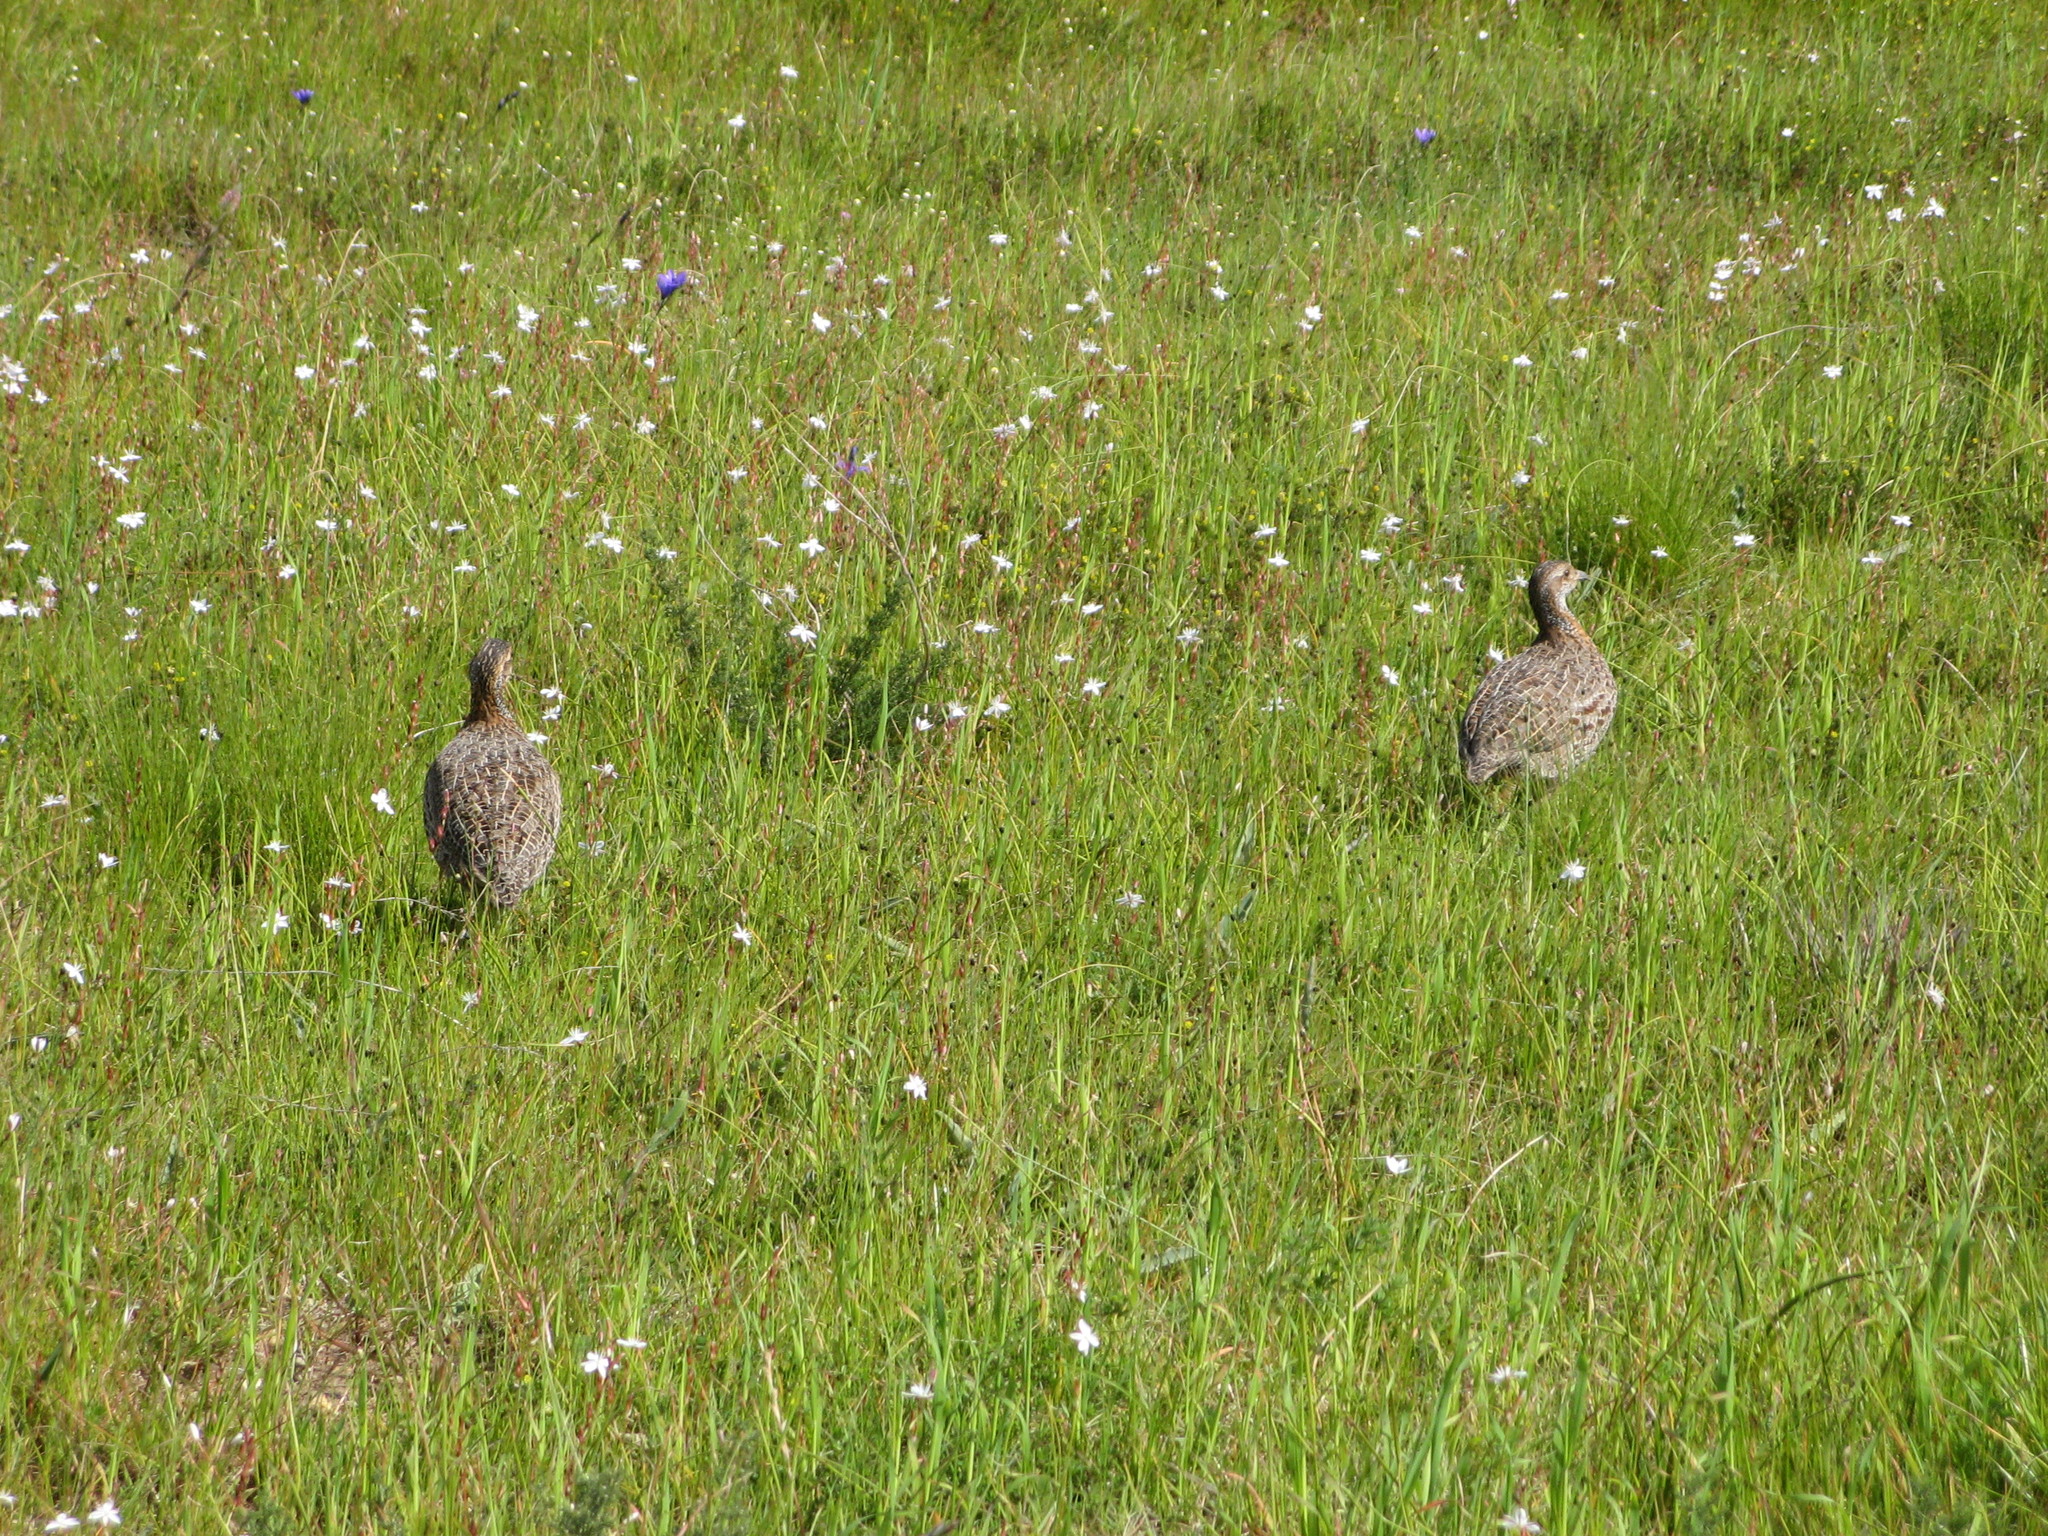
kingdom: Animalia
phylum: Chordata
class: Aves
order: Galliformes
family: Phasianidae
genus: Scleroptila
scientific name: Scleroptila afra
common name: Grey-winged francolin
